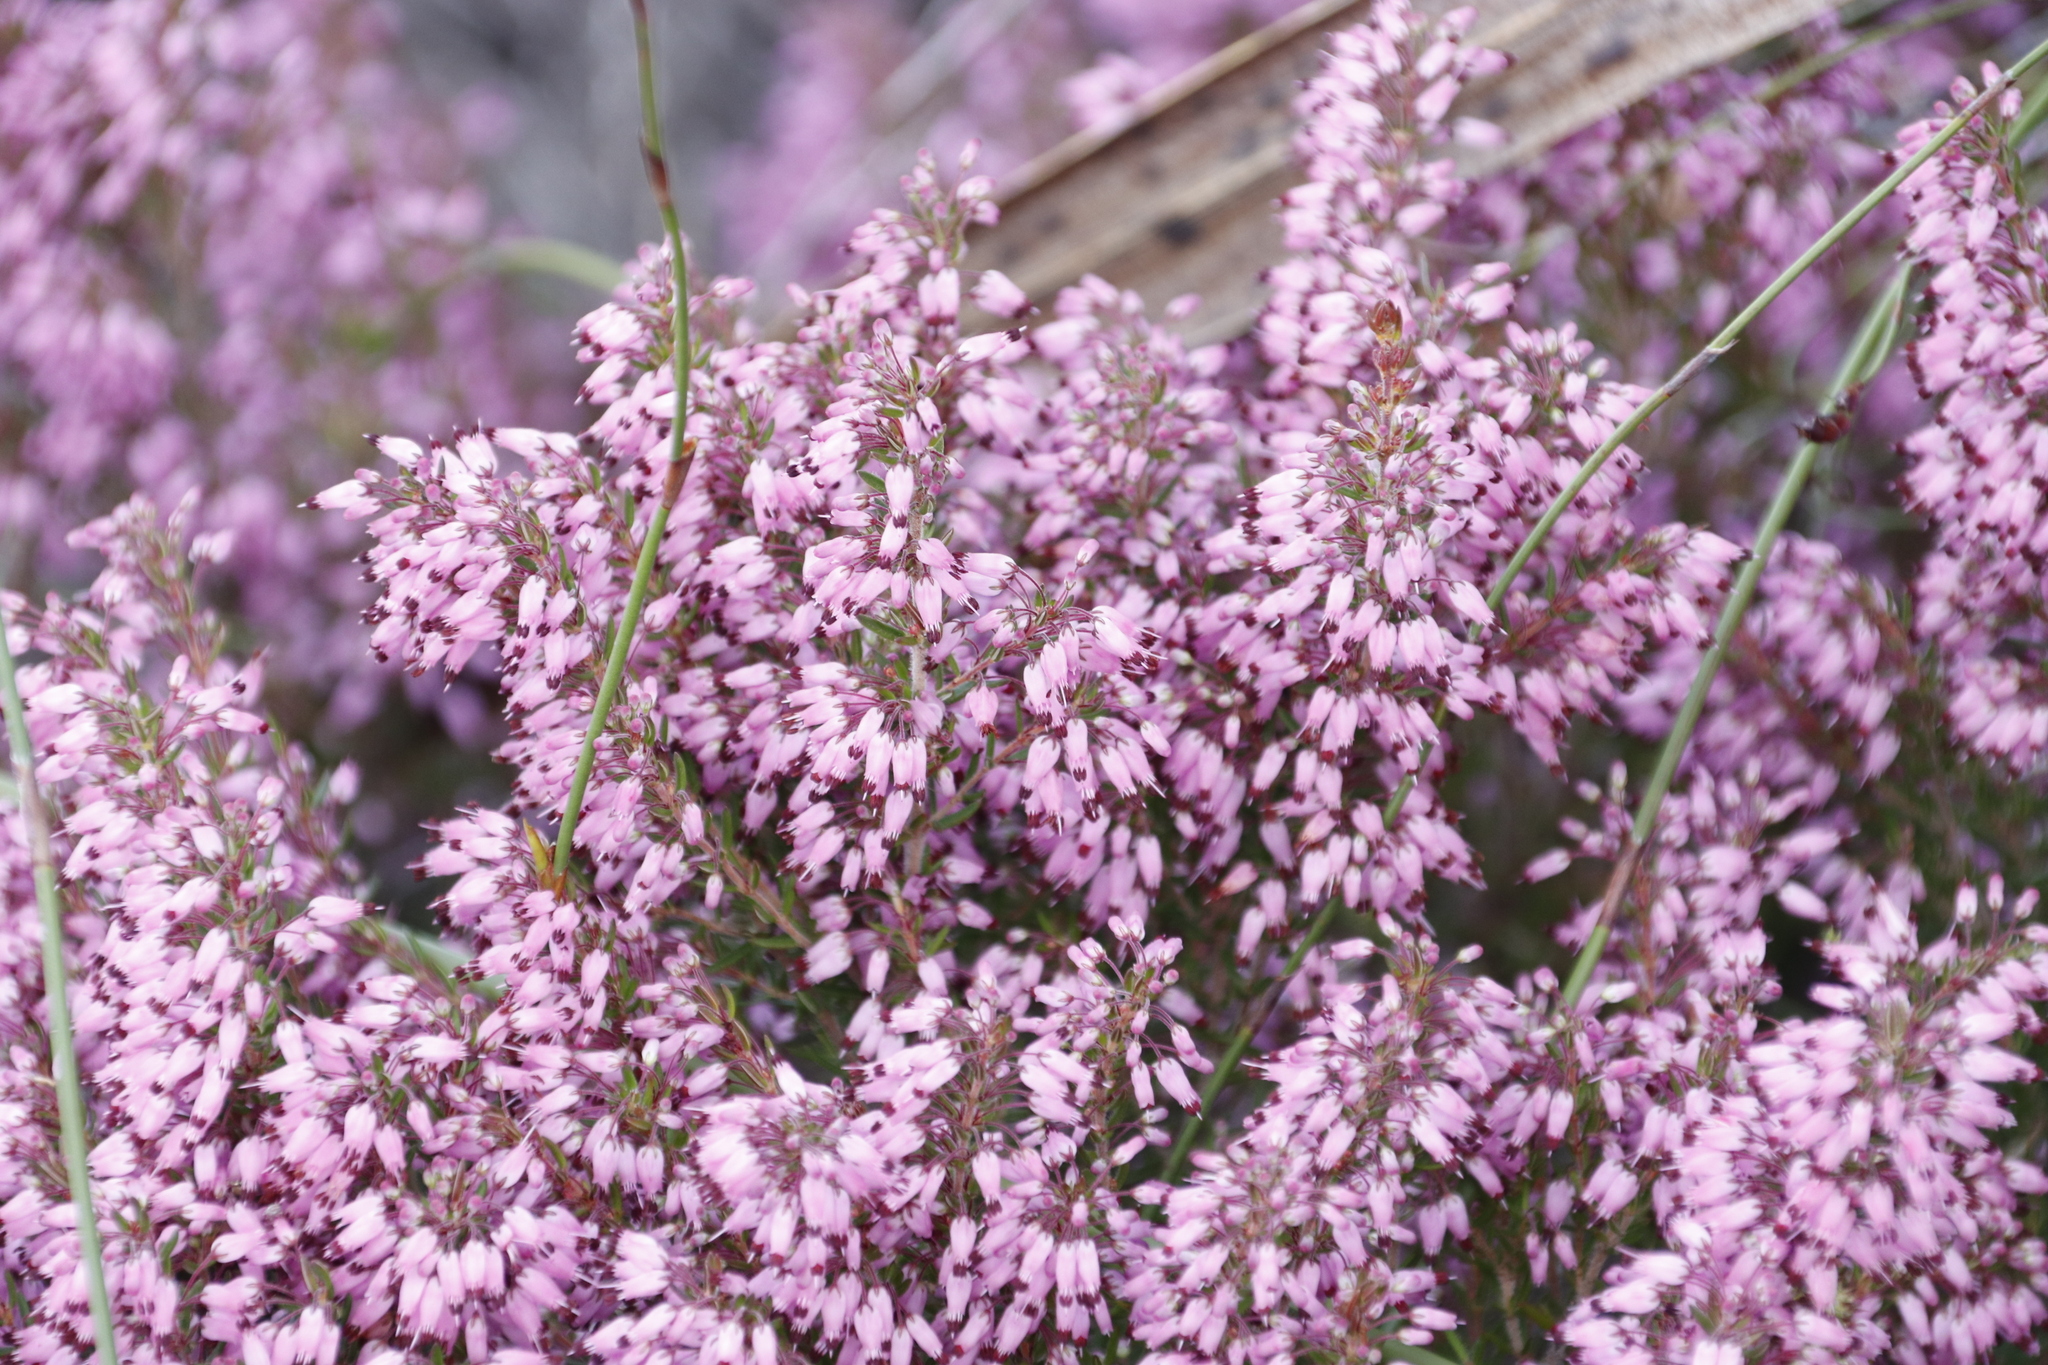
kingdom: Plantae
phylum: Tracheophyta
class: Magnoliopsida
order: Ericales
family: Ericaceae
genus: Erica
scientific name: Erica nudiflora
